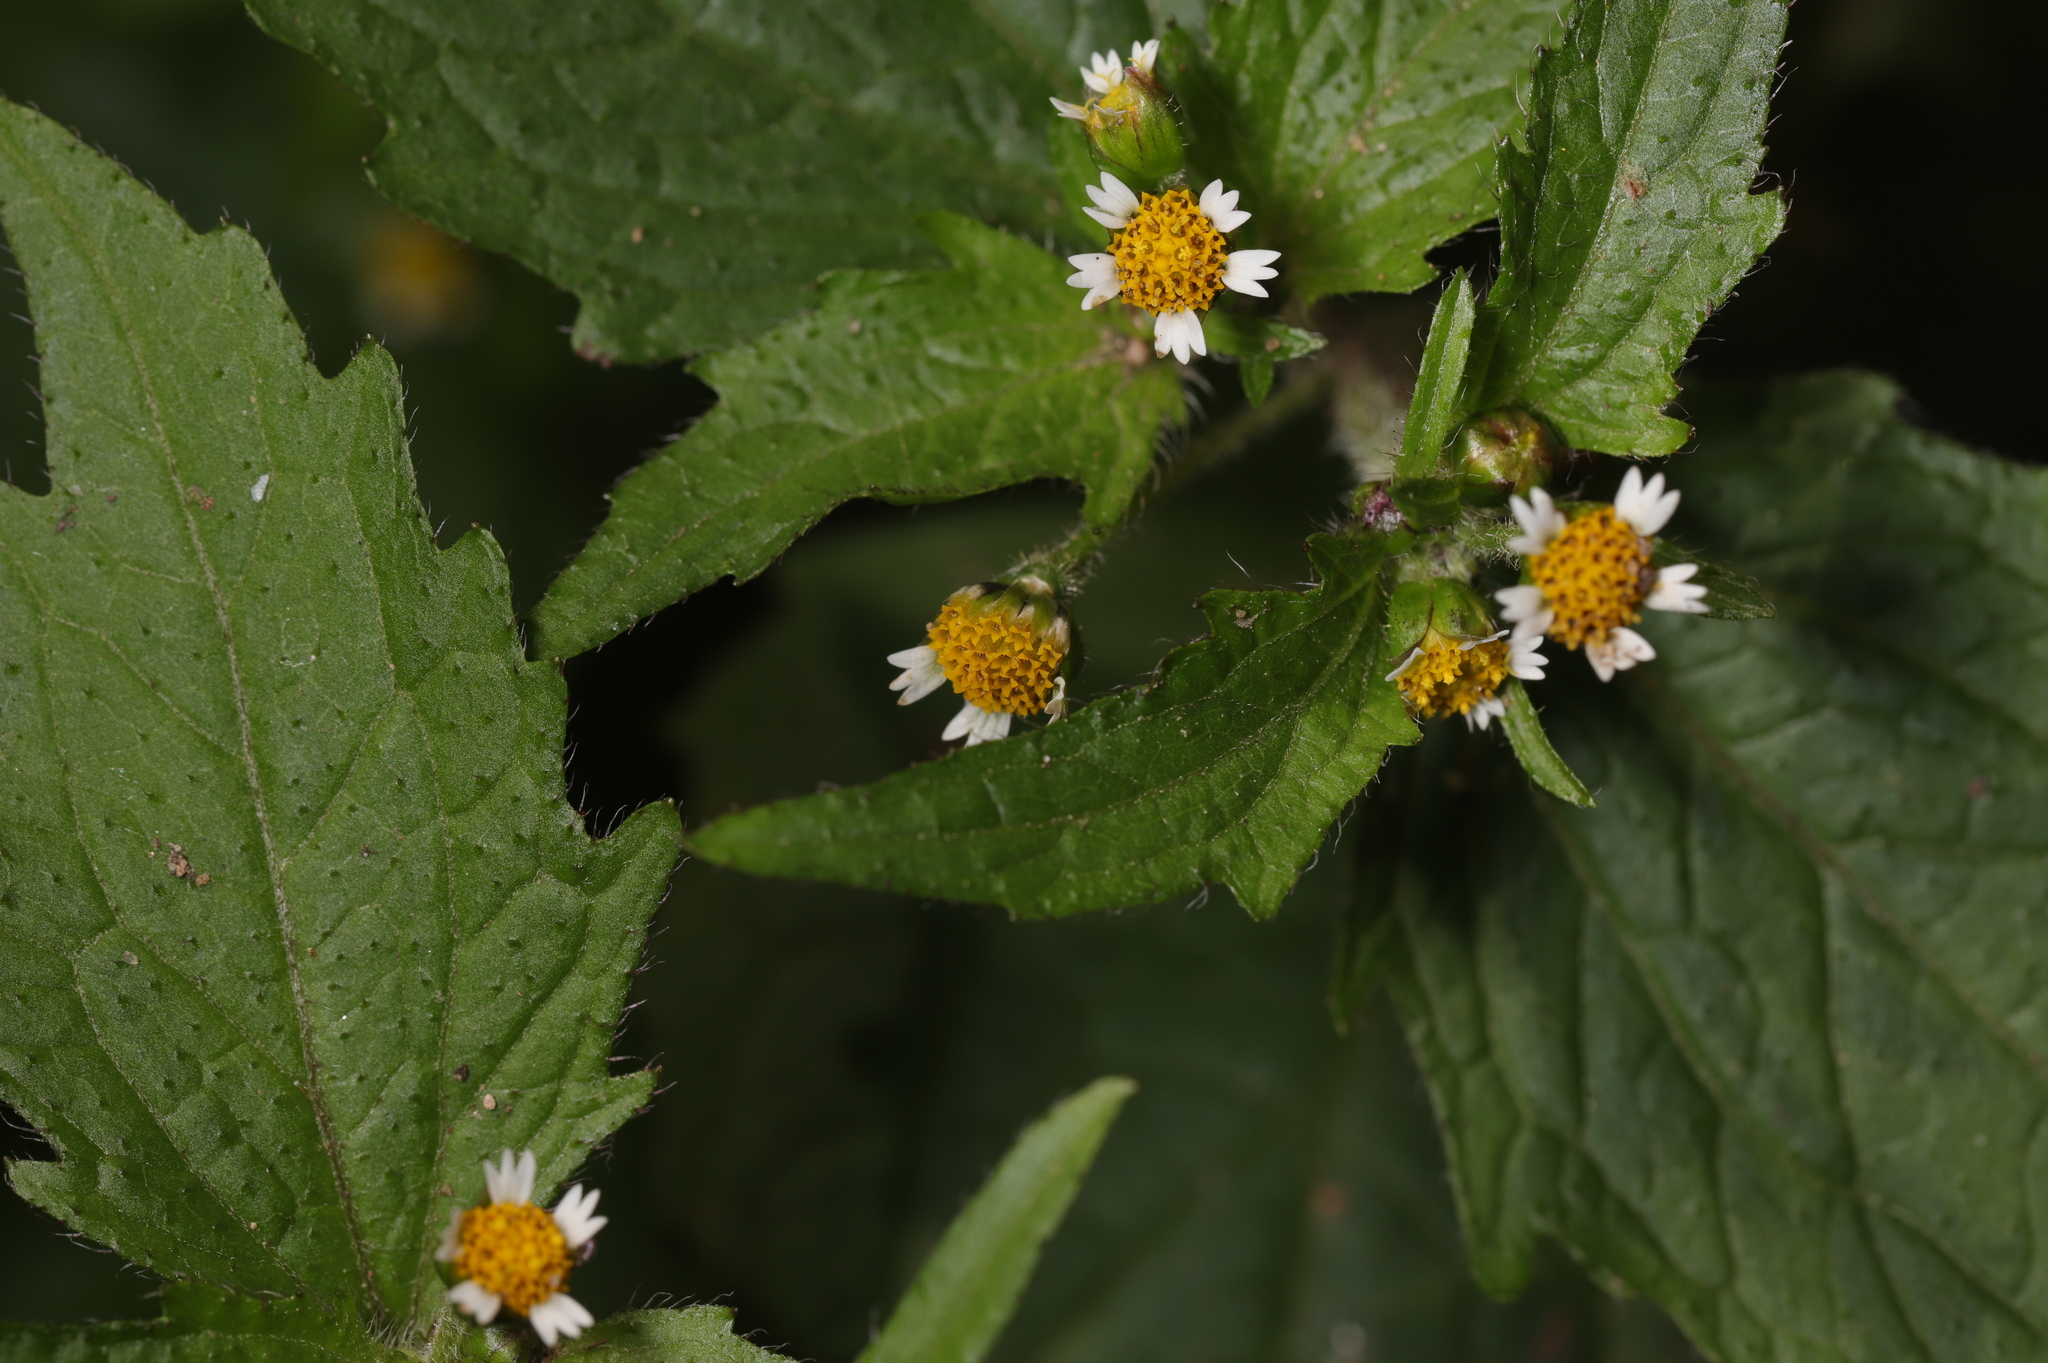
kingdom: Plantae
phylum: Tracheophyta
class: Magnoliopsida
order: Asterales
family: Asteraceae
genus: Galinsoga
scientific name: Galinsoga quadriradiata
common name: Shaggy soldier
